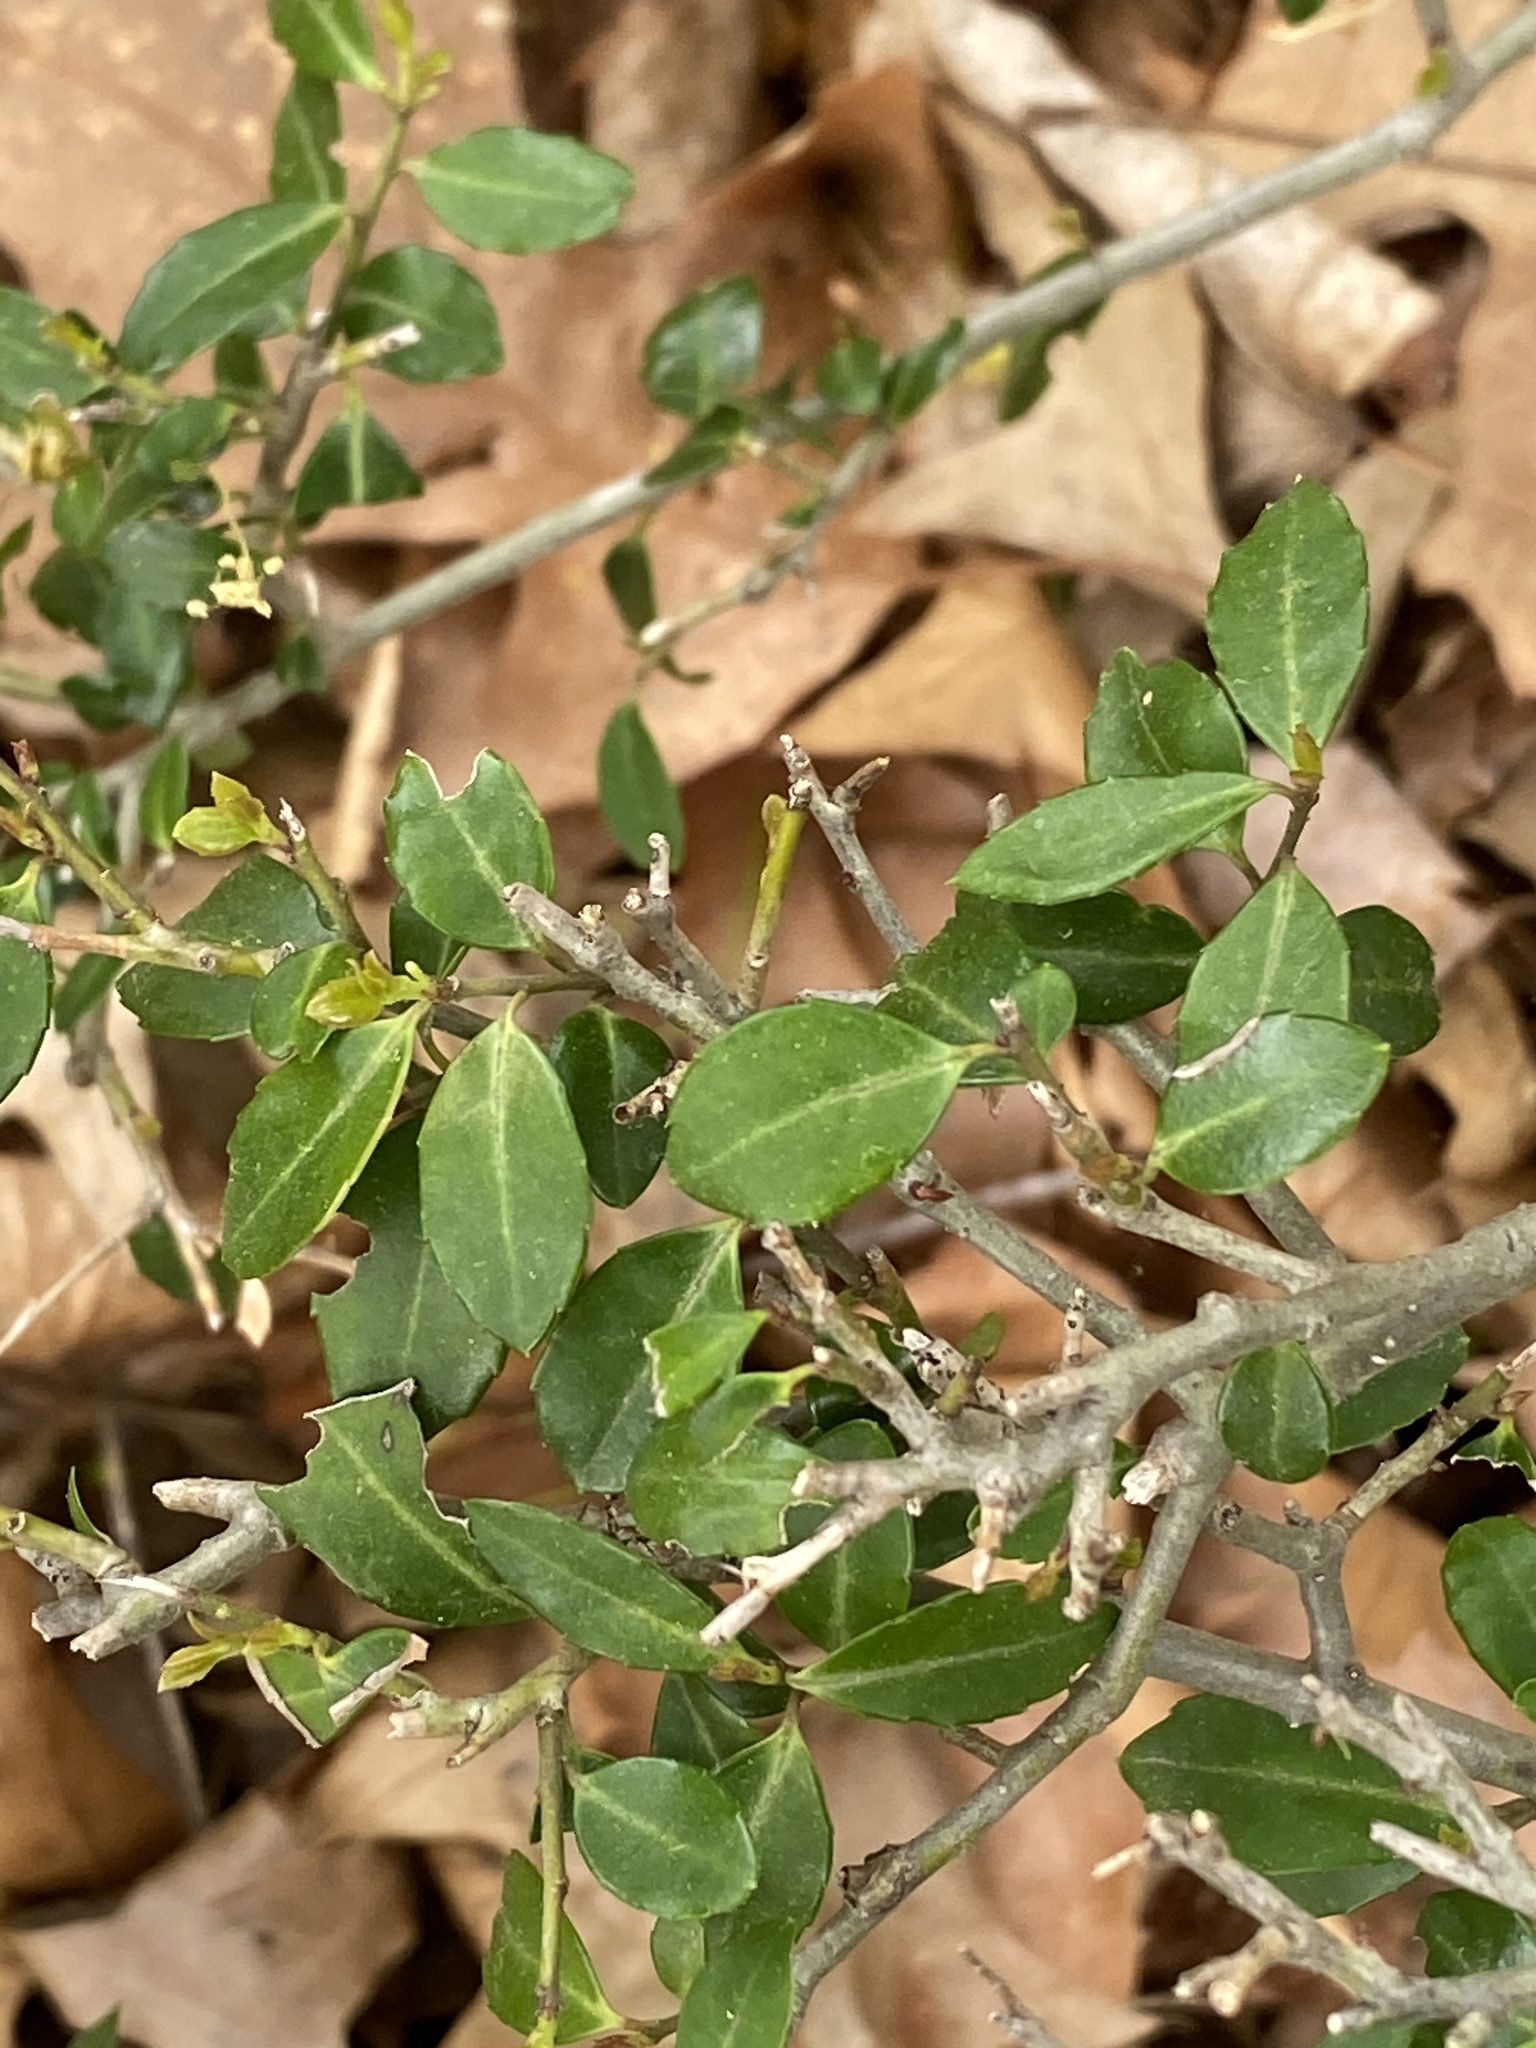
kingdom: Plantae
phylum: Tracheophyta
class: Magnoliopsida
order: Aquifoliales
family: Aquifoliaceae
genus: Ilex
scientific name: Ilex crenata
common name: Japanese holly
